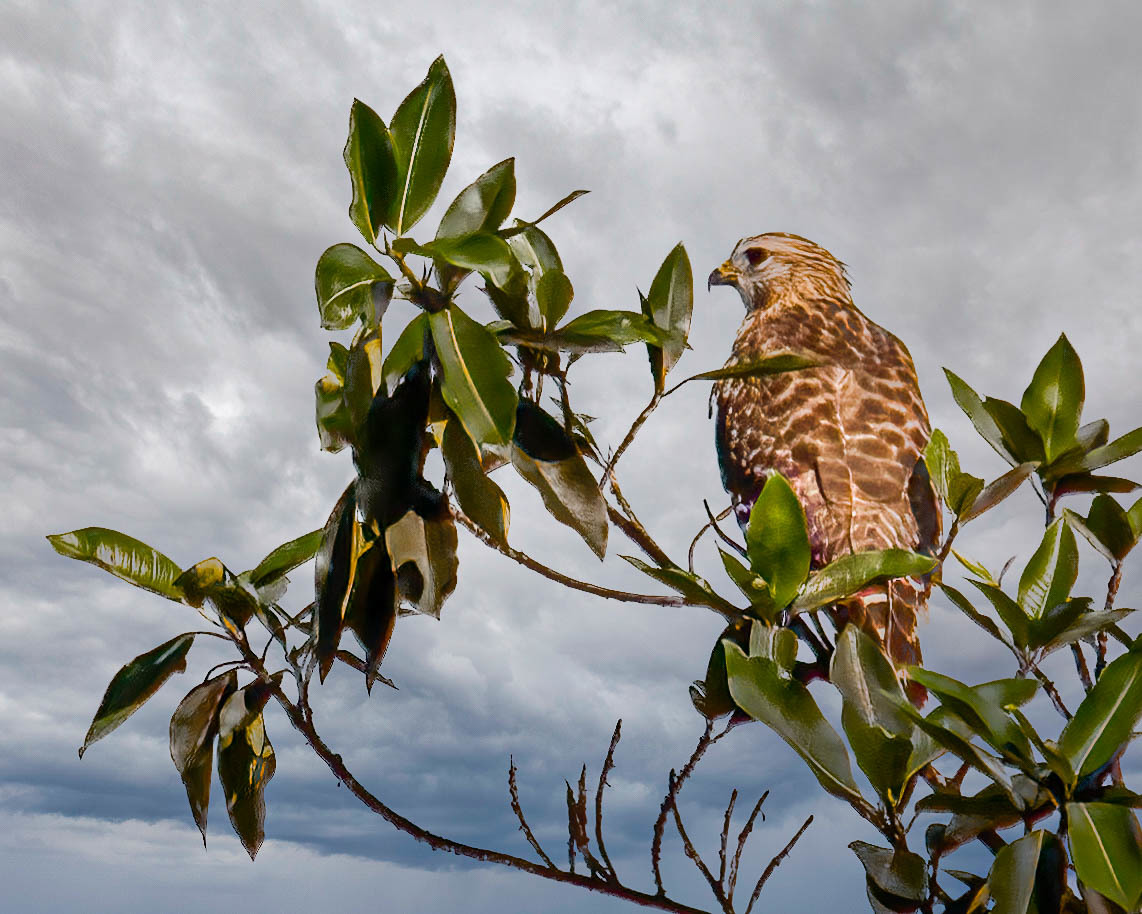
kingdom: Animalia
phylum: Chordata
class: Aves
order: Accipitriformes
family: Accipitridae
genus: Buteo
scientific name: Buteo lineatus
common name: Red-shouldered hawk
